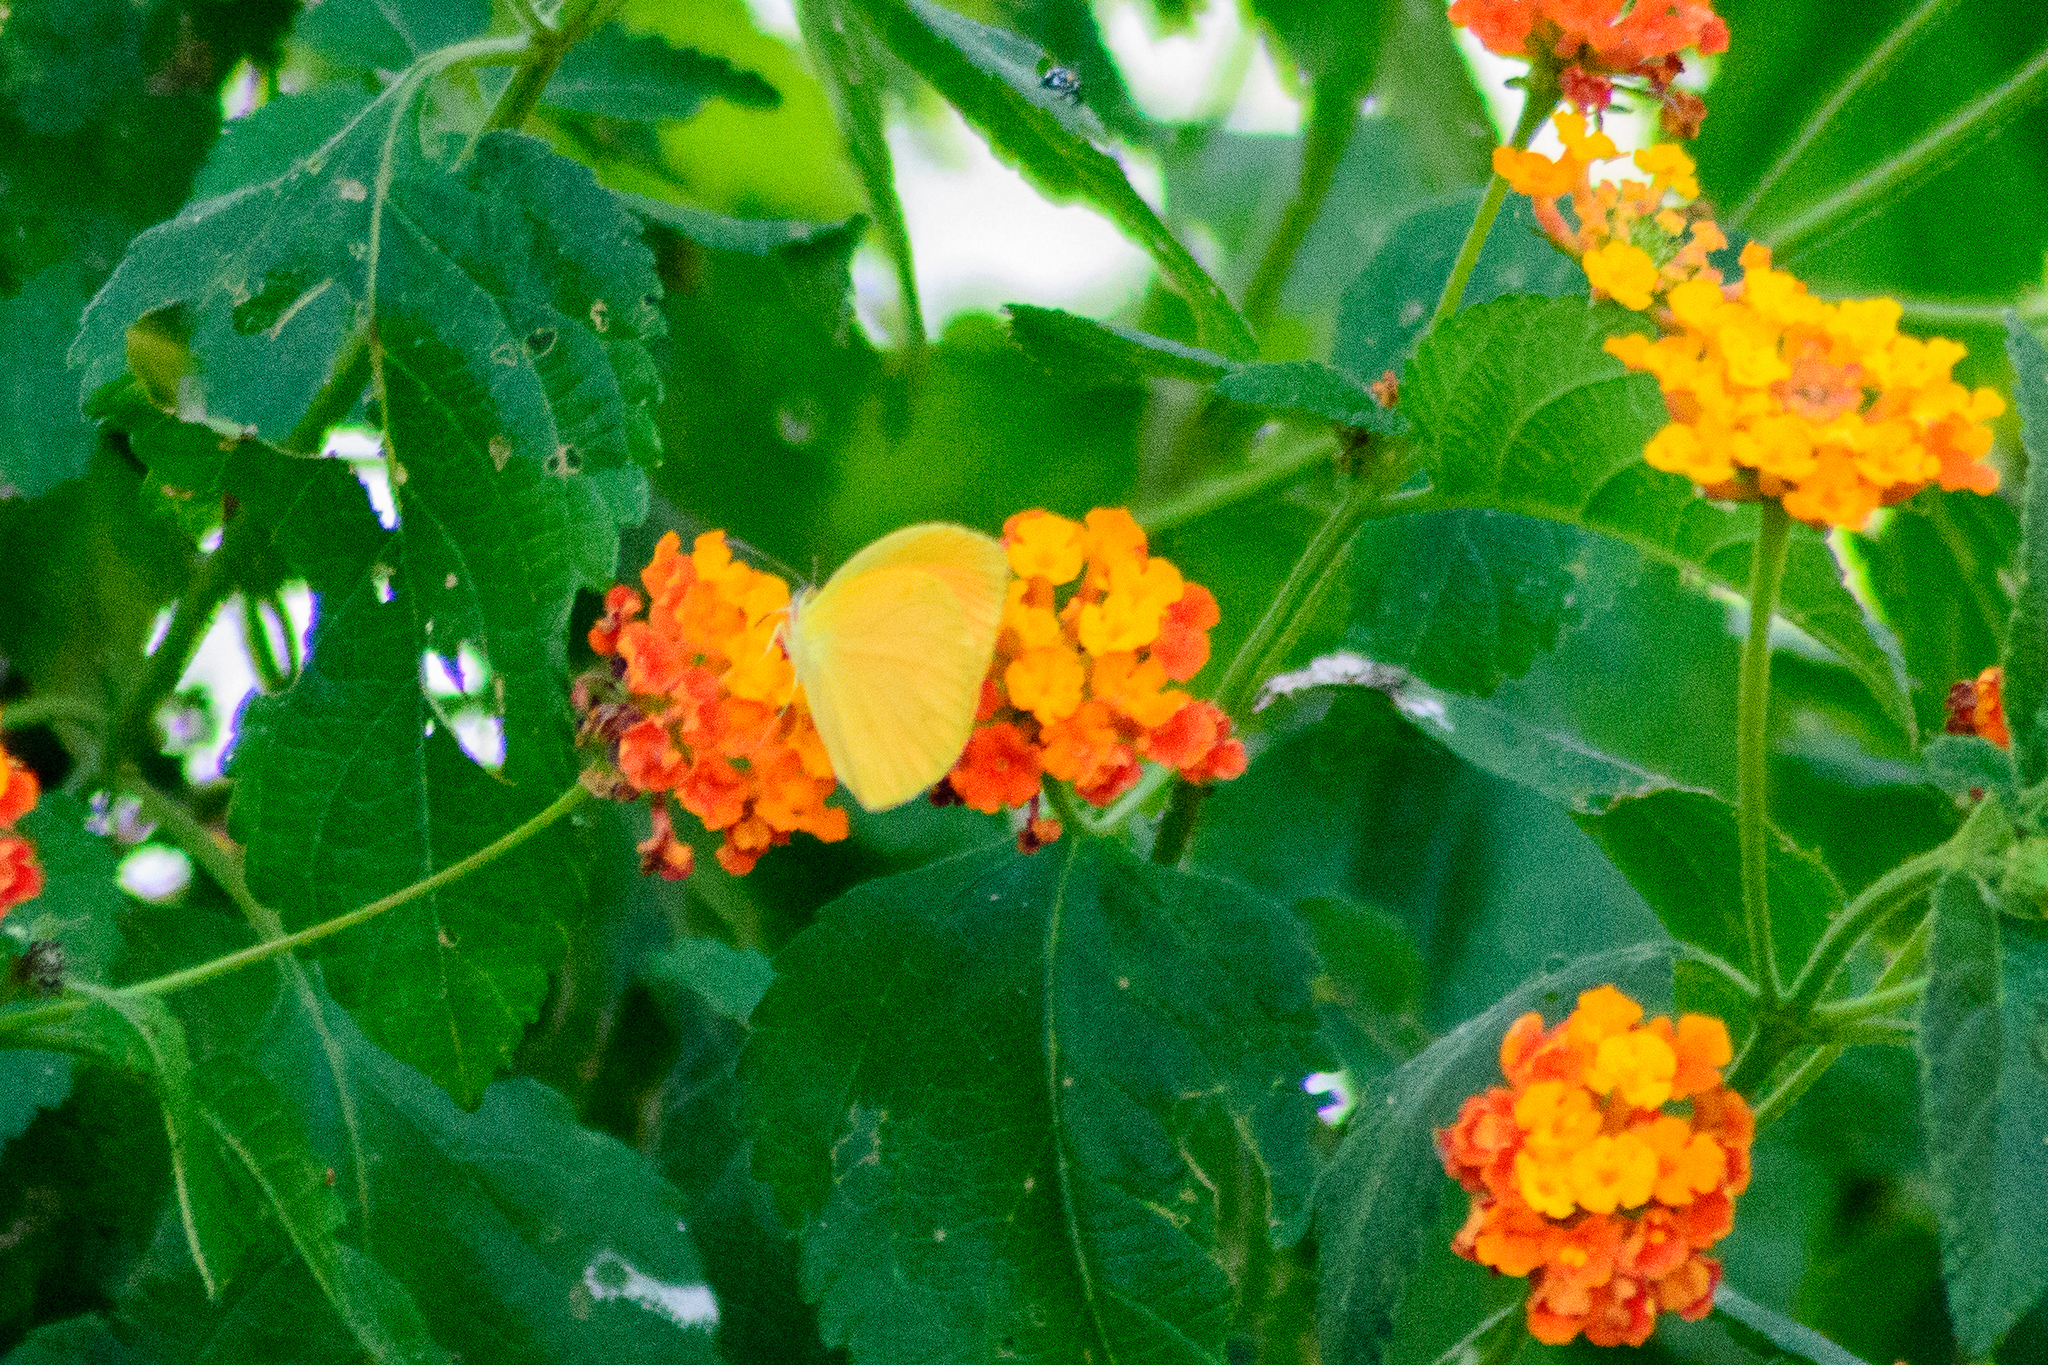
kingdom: Animalia
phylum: Arthropoda
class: Insecta
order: Lepidoptera
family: Pieridae
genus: Pyrisitia
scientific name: Pyrisitia westwoodi
